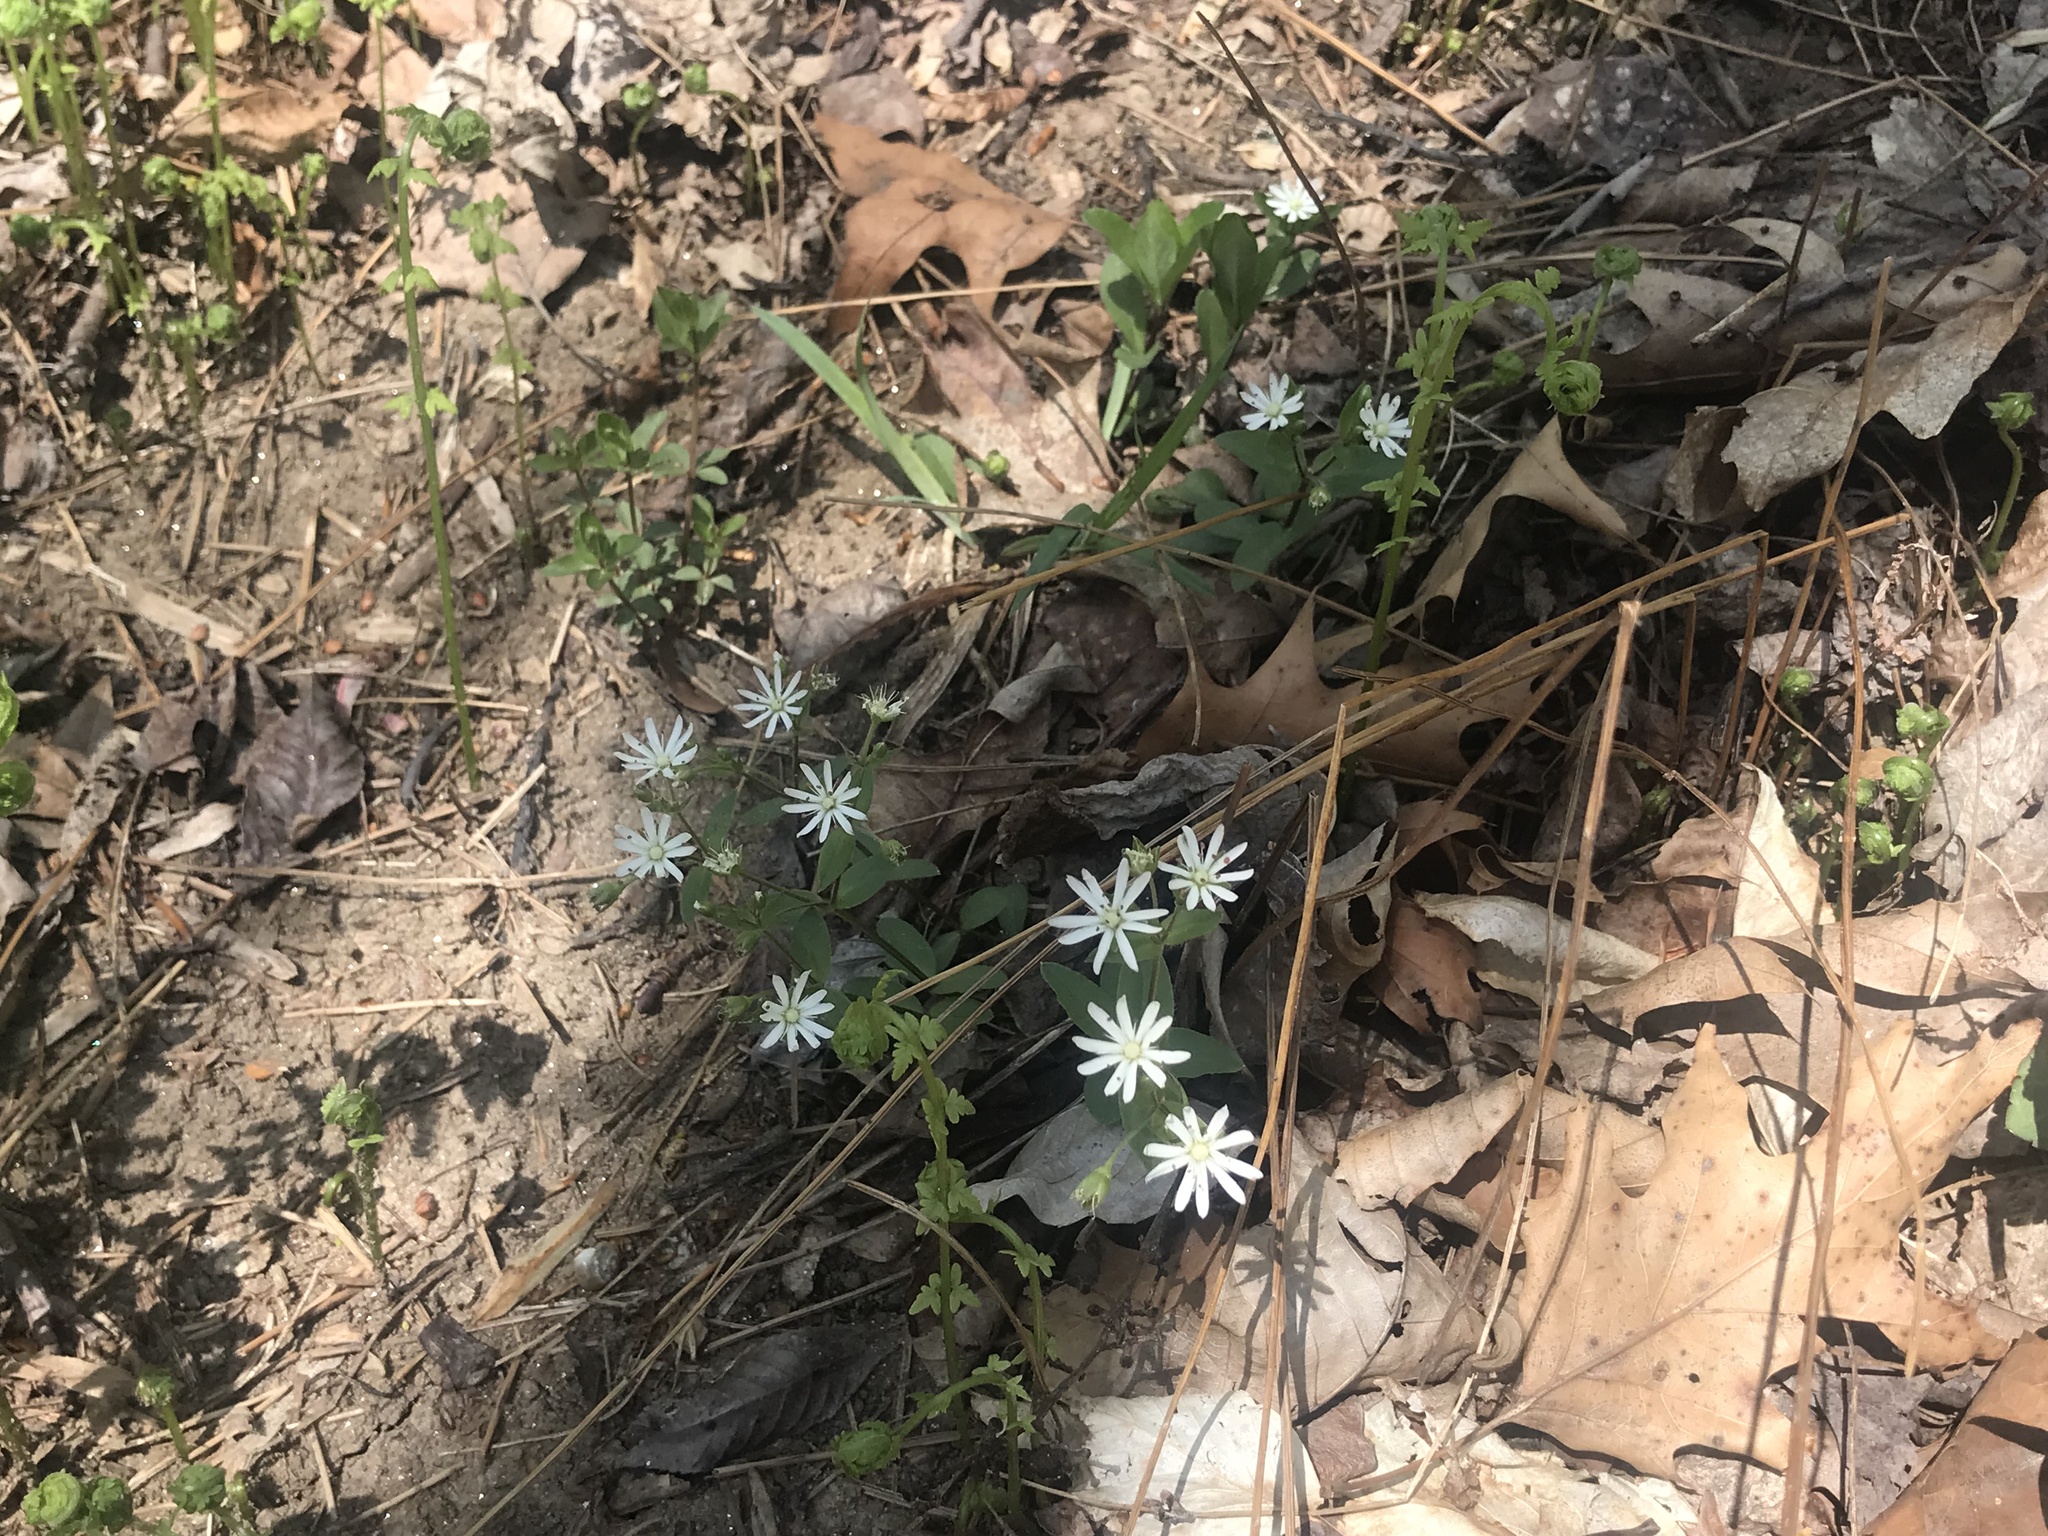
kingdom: Plantae
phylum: Tracheophyta
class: Magnoliopsida
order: Caryophyllales
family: Caryophyllaceae
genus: Stellaria
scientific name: Stellaria pubera
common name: Star chickweed
